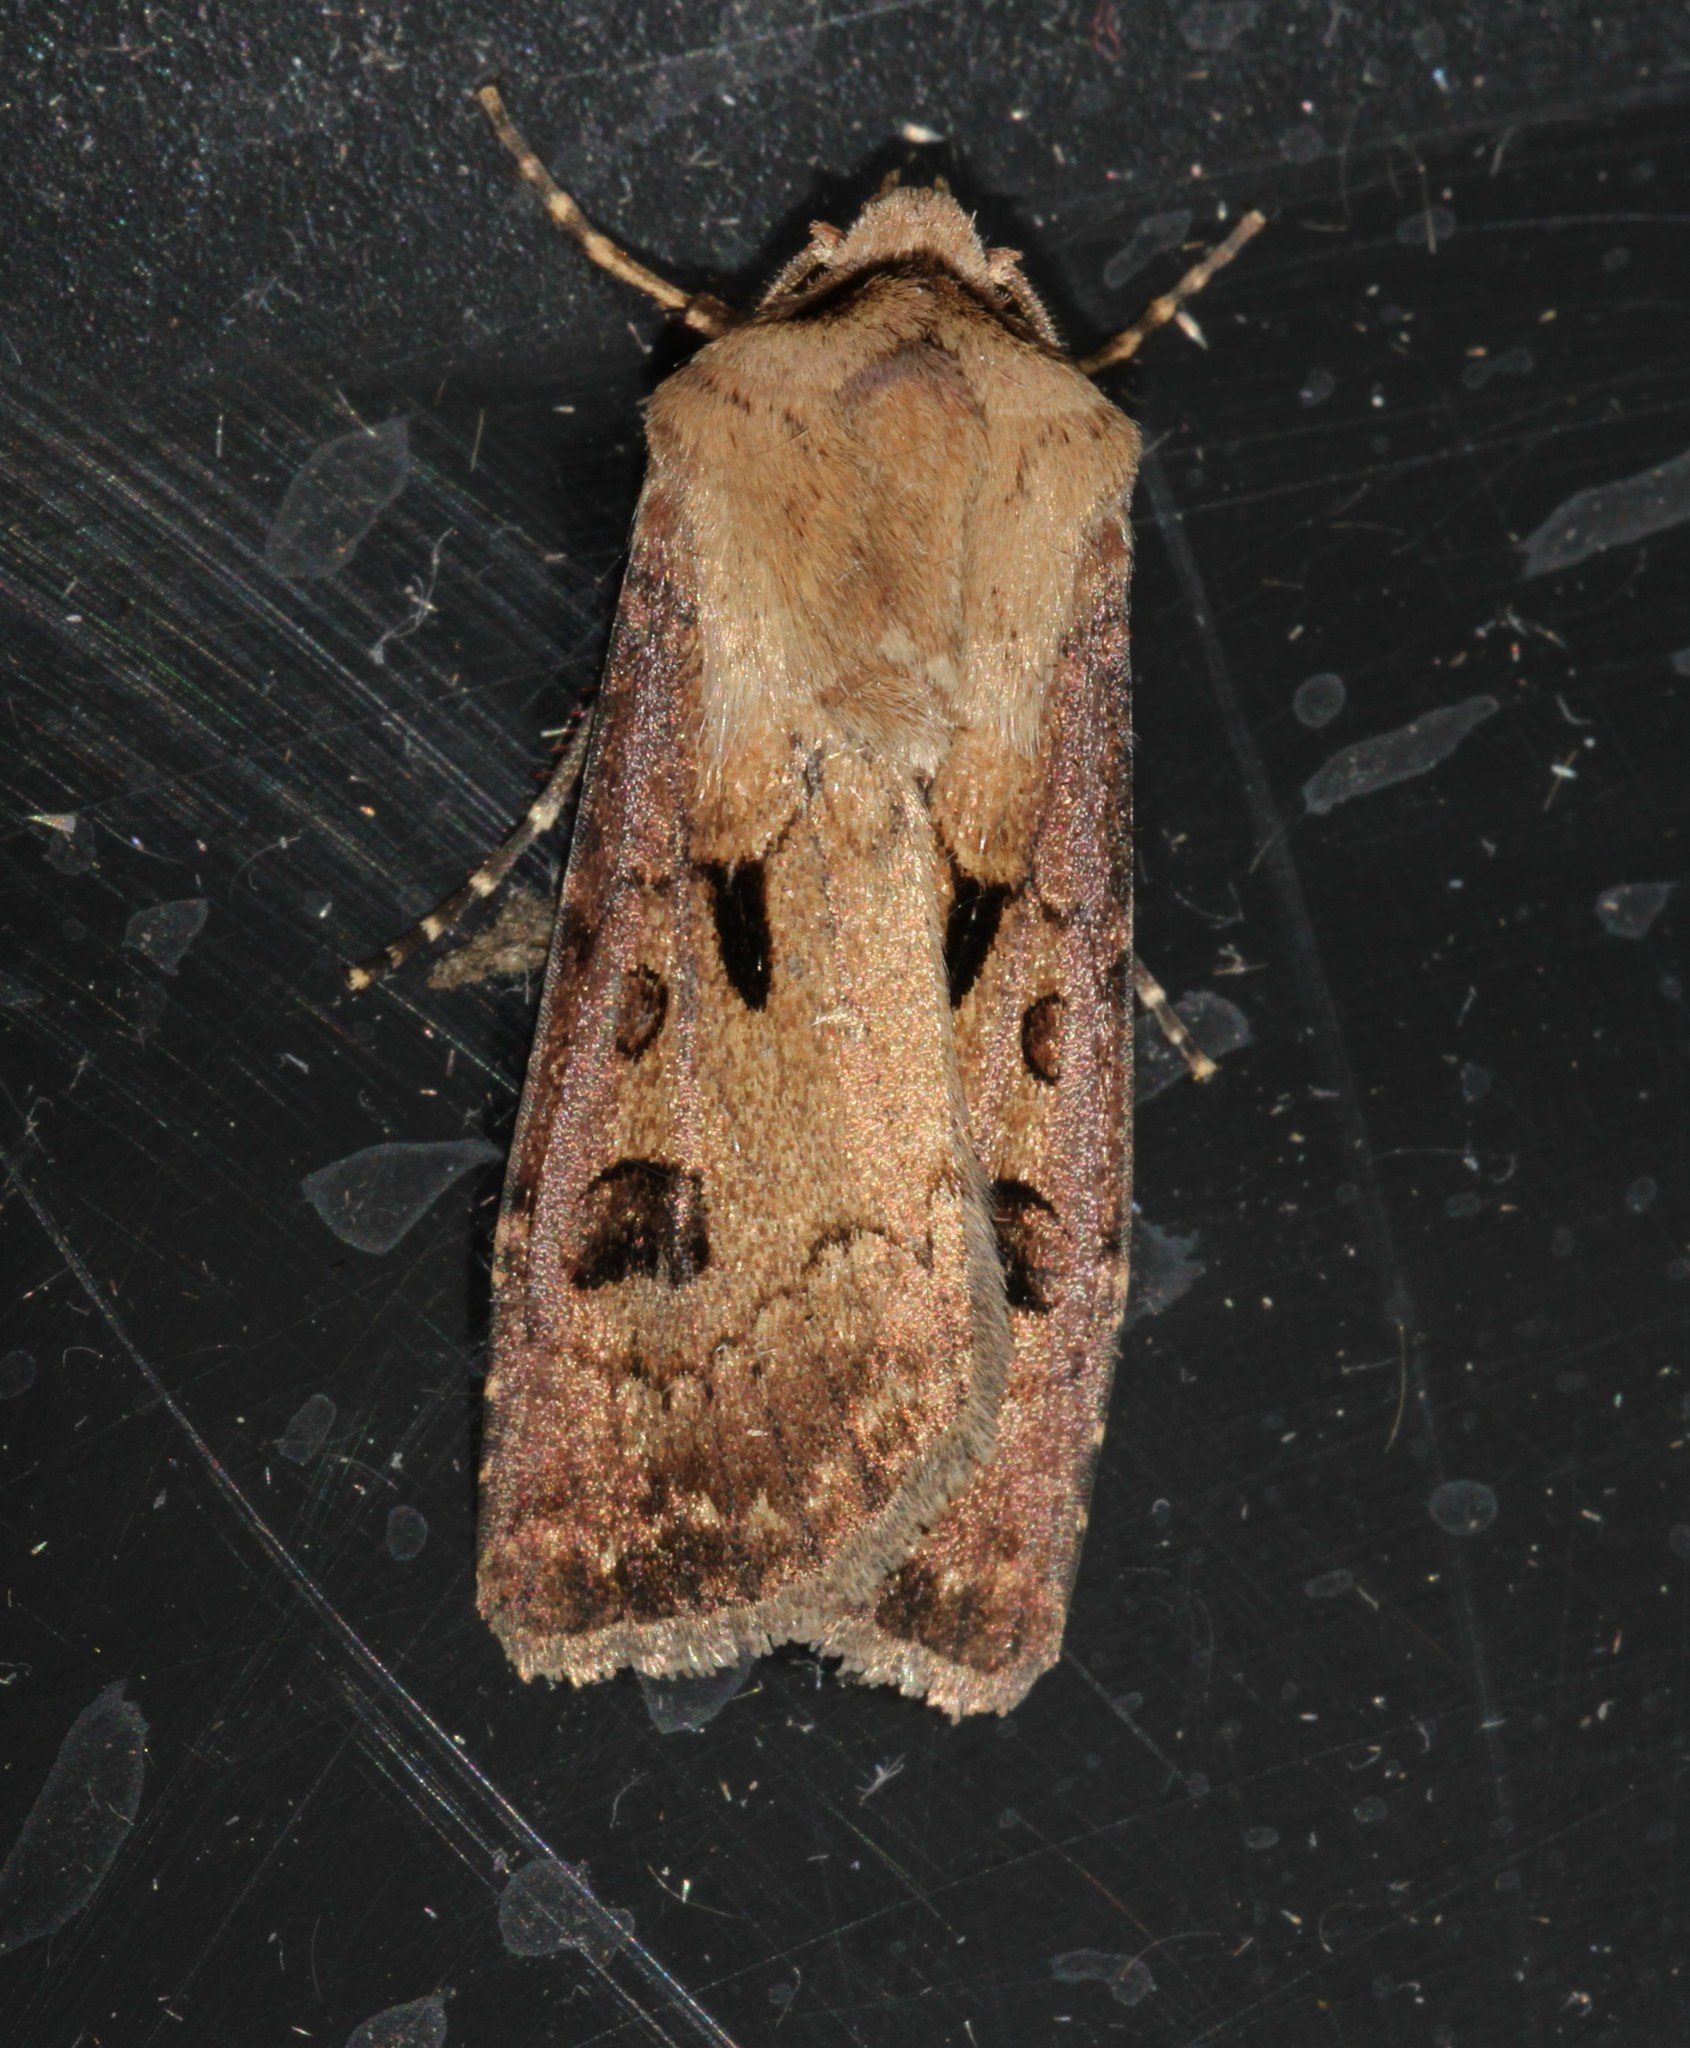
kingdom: Animalia
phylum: Arthropoda
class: Insecta
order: Lepidoptera
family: Noctuidae
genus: Agrotis
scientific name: Agrotis exclamationis
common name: Heart and dart
